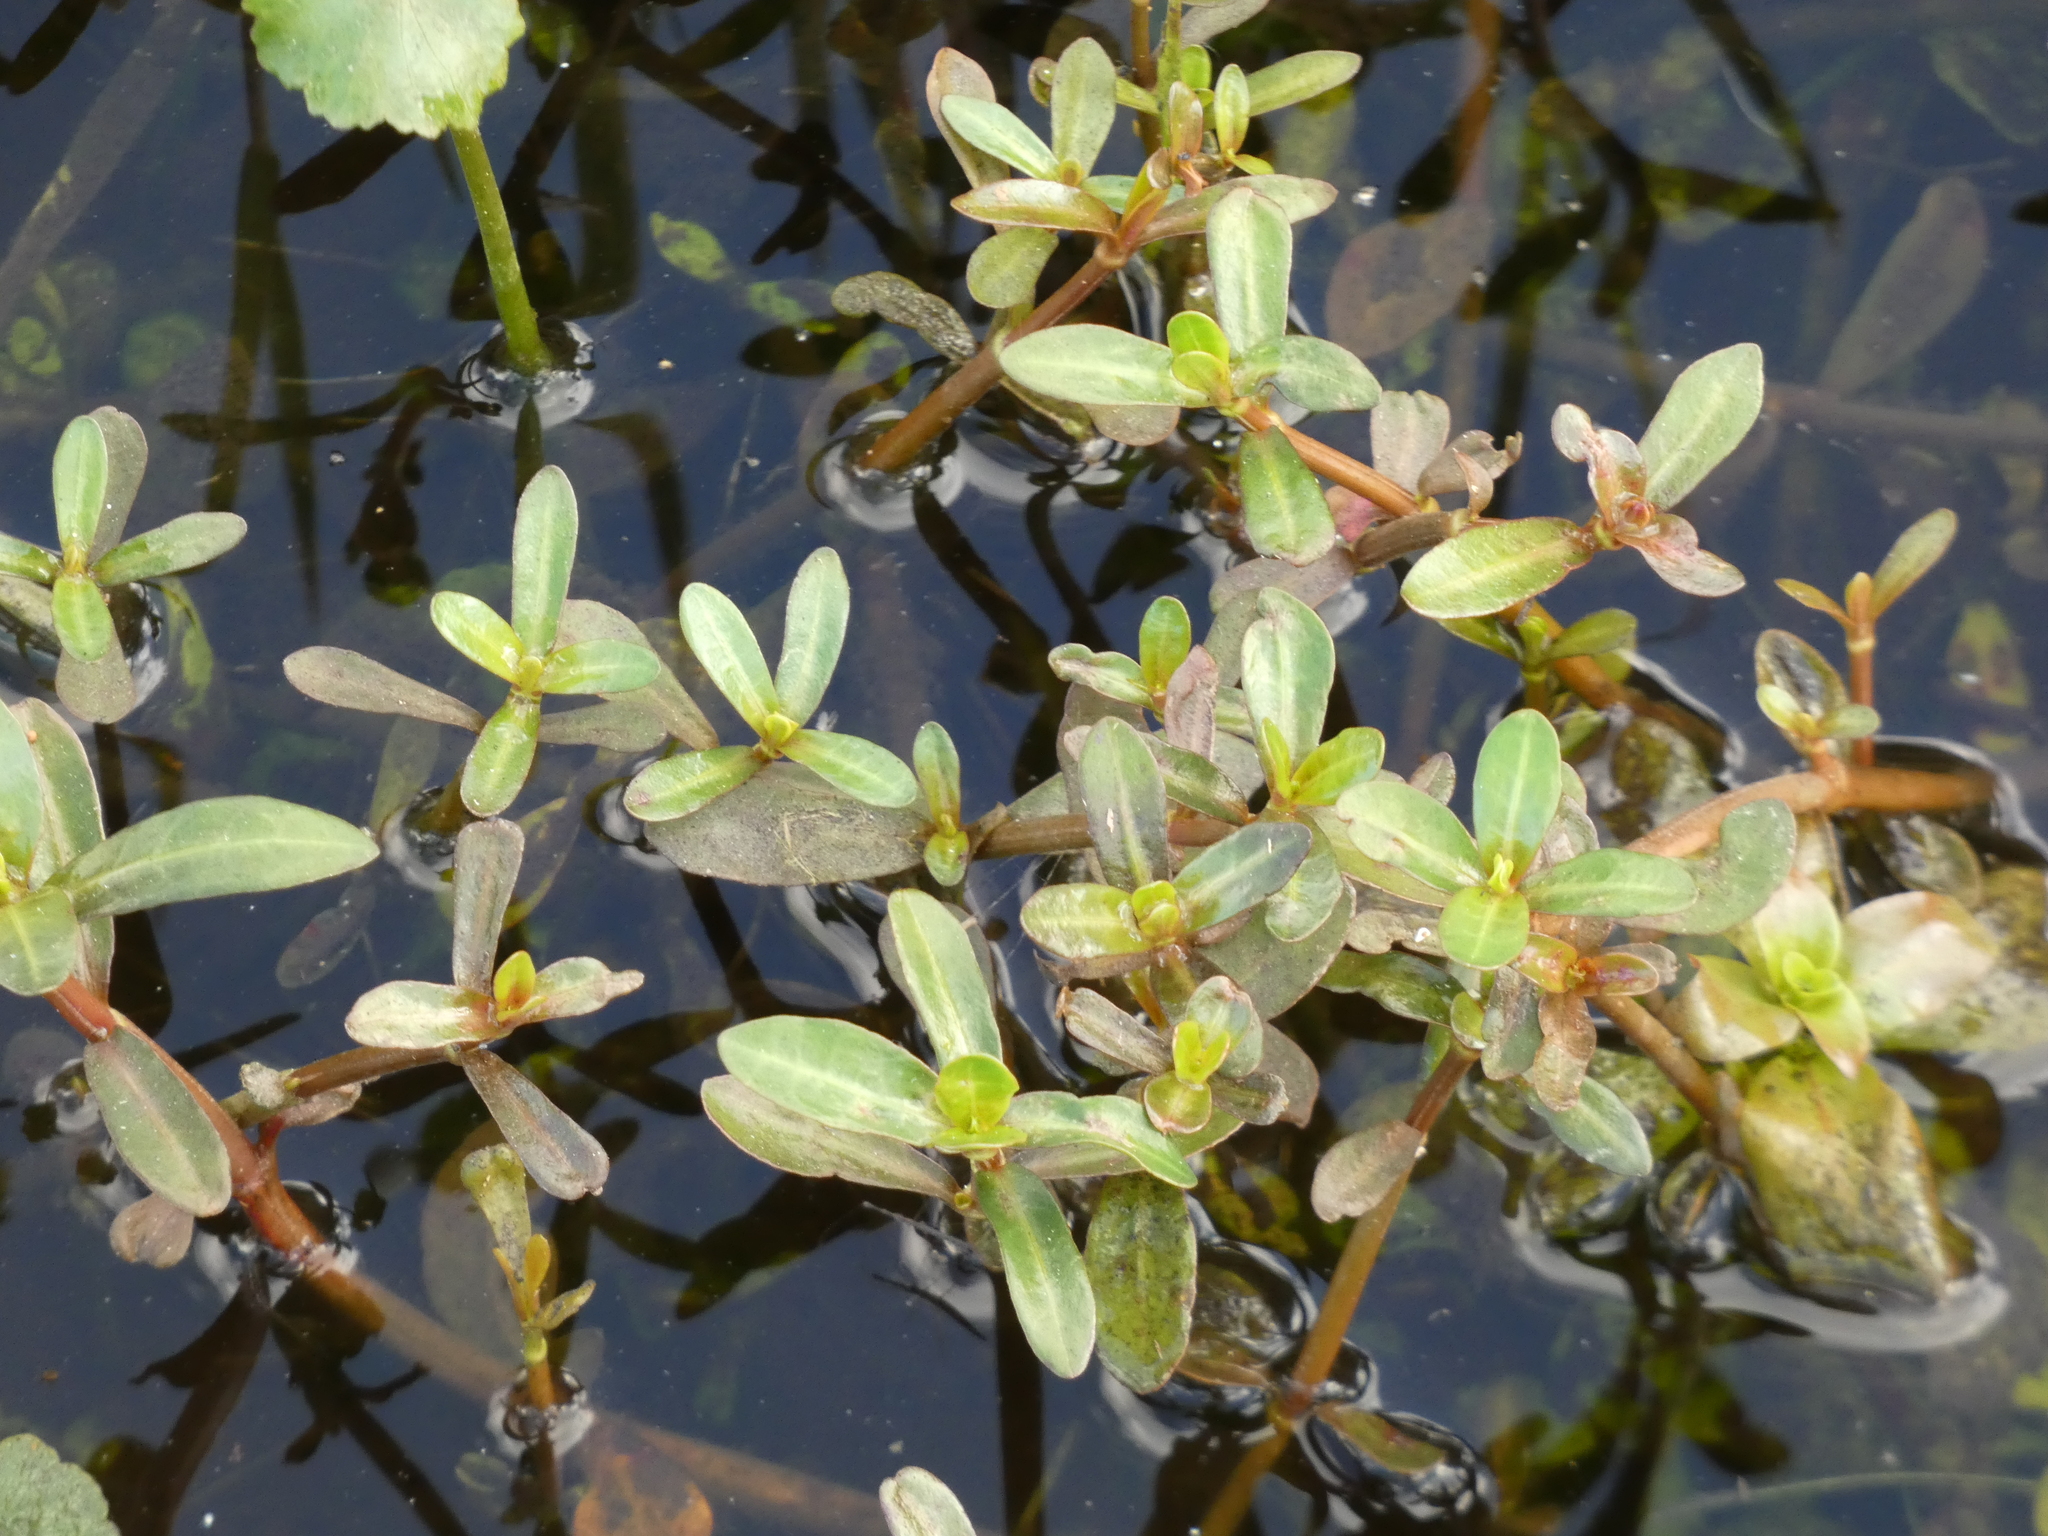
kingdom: Plantae
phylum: Tracheophyta
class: Magnoliopsida
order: Caryophyllales
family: Amaranthaceae
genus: Alternanthera
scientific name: Alternanthera philoxeroides
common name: Alligatorweed
